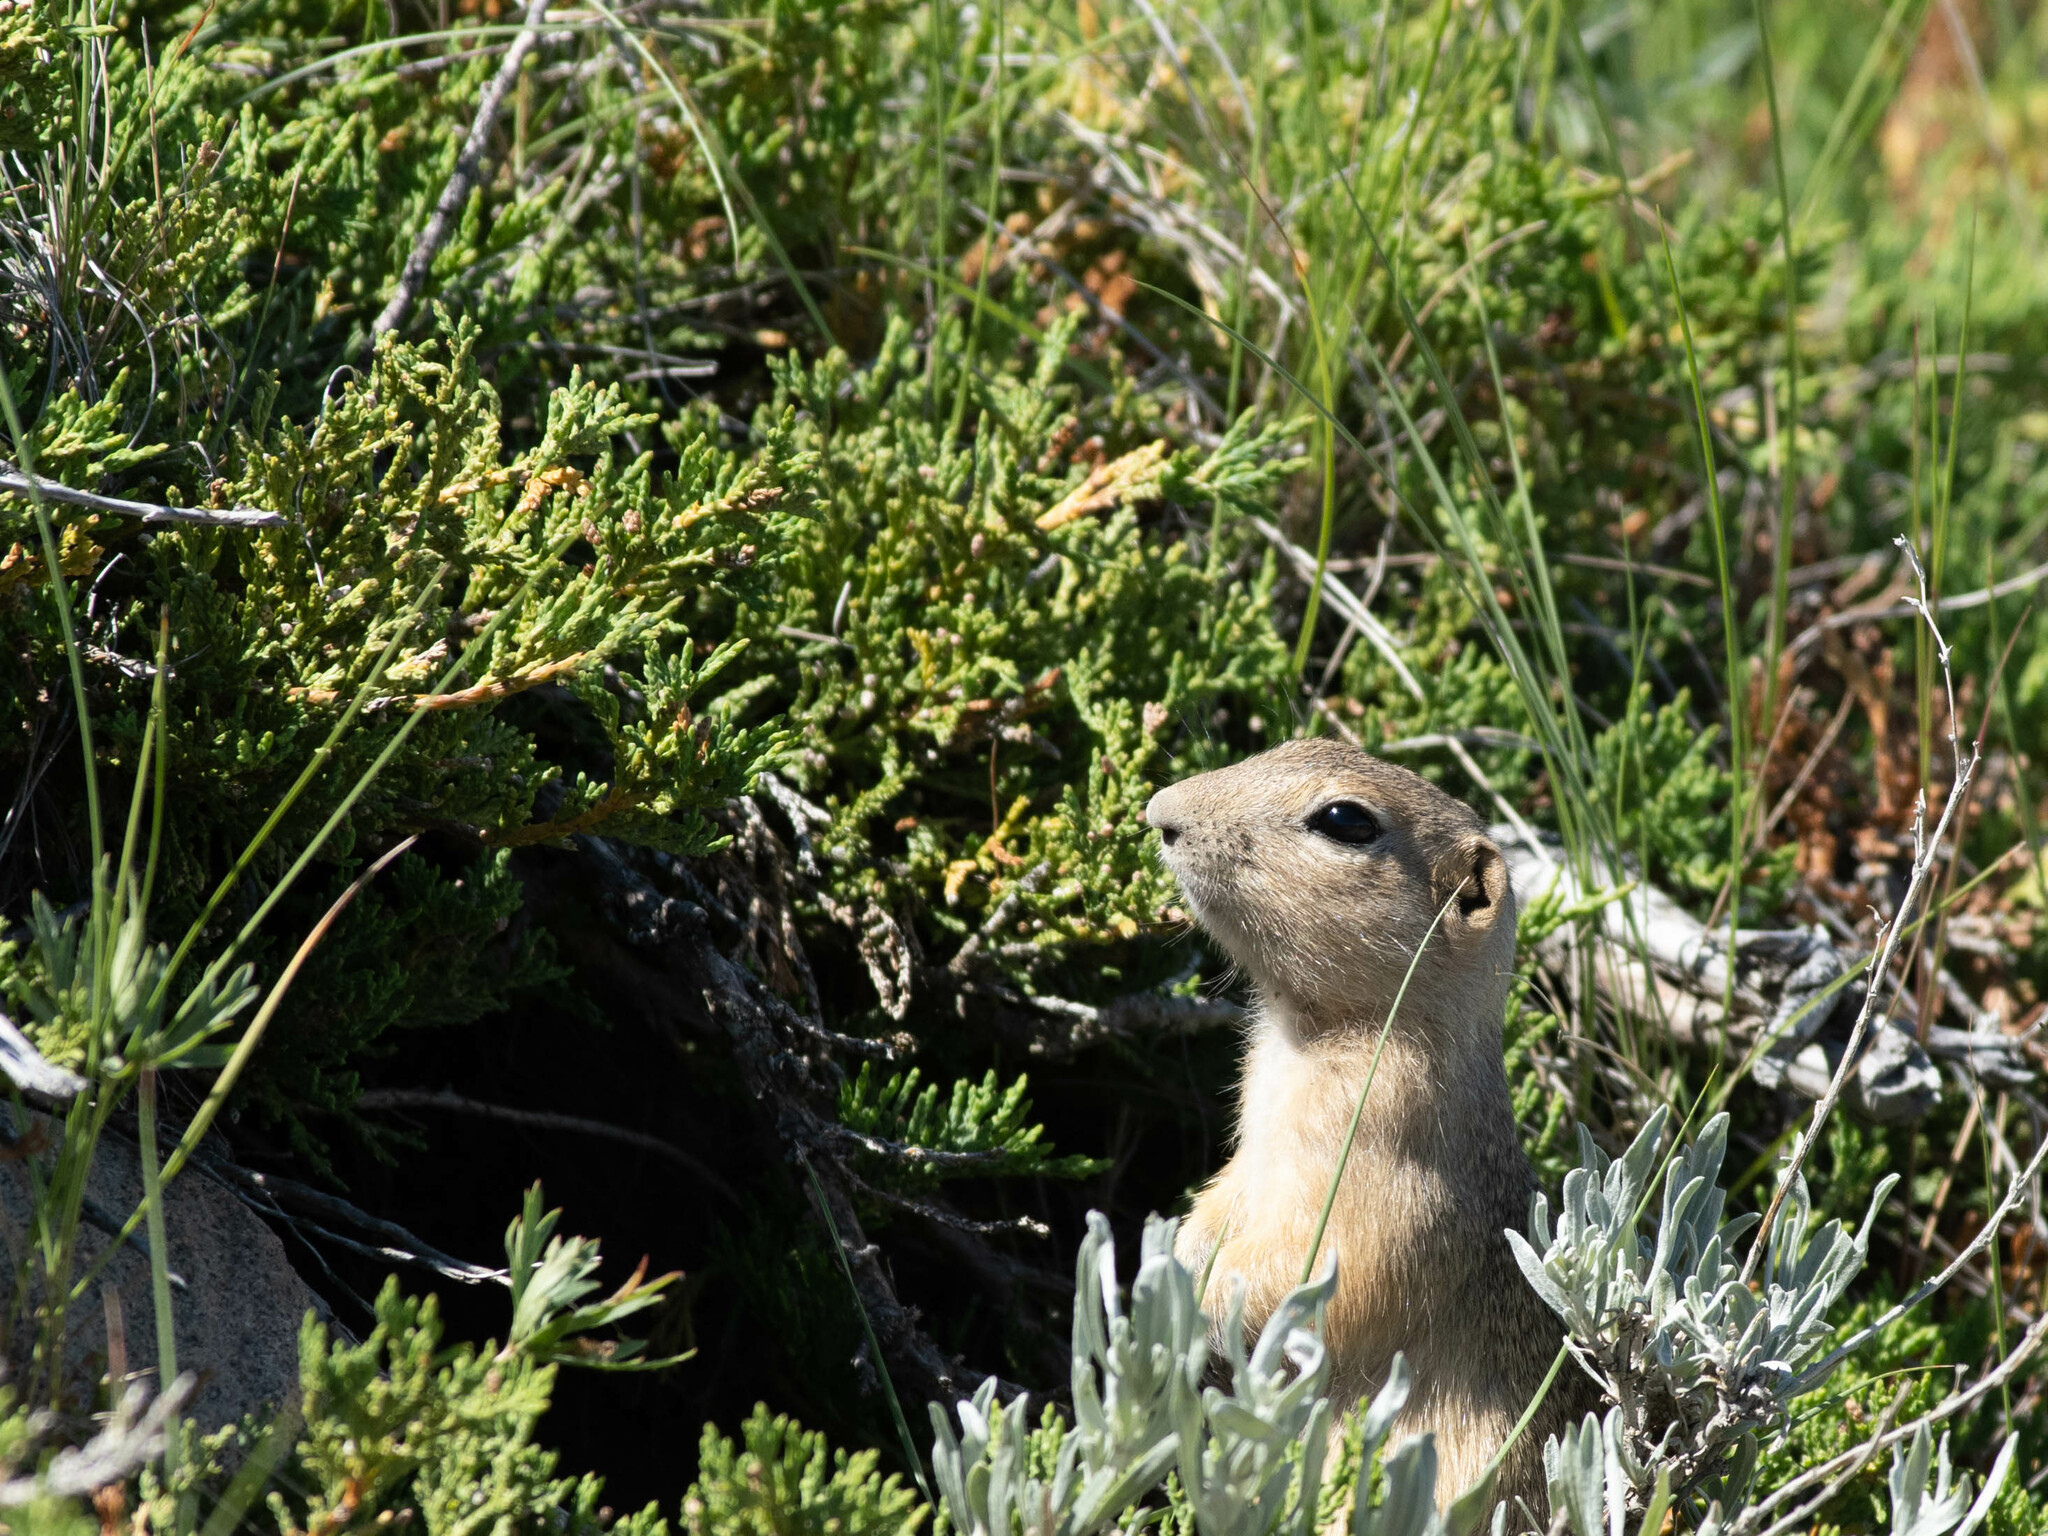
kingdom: Animalia
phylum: Chordata
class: Mammalia
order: Rodentia
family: Sciuridae
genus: Urocitellus
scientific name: Urocitellus richardsonii
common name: Richardson's ground squirrel
